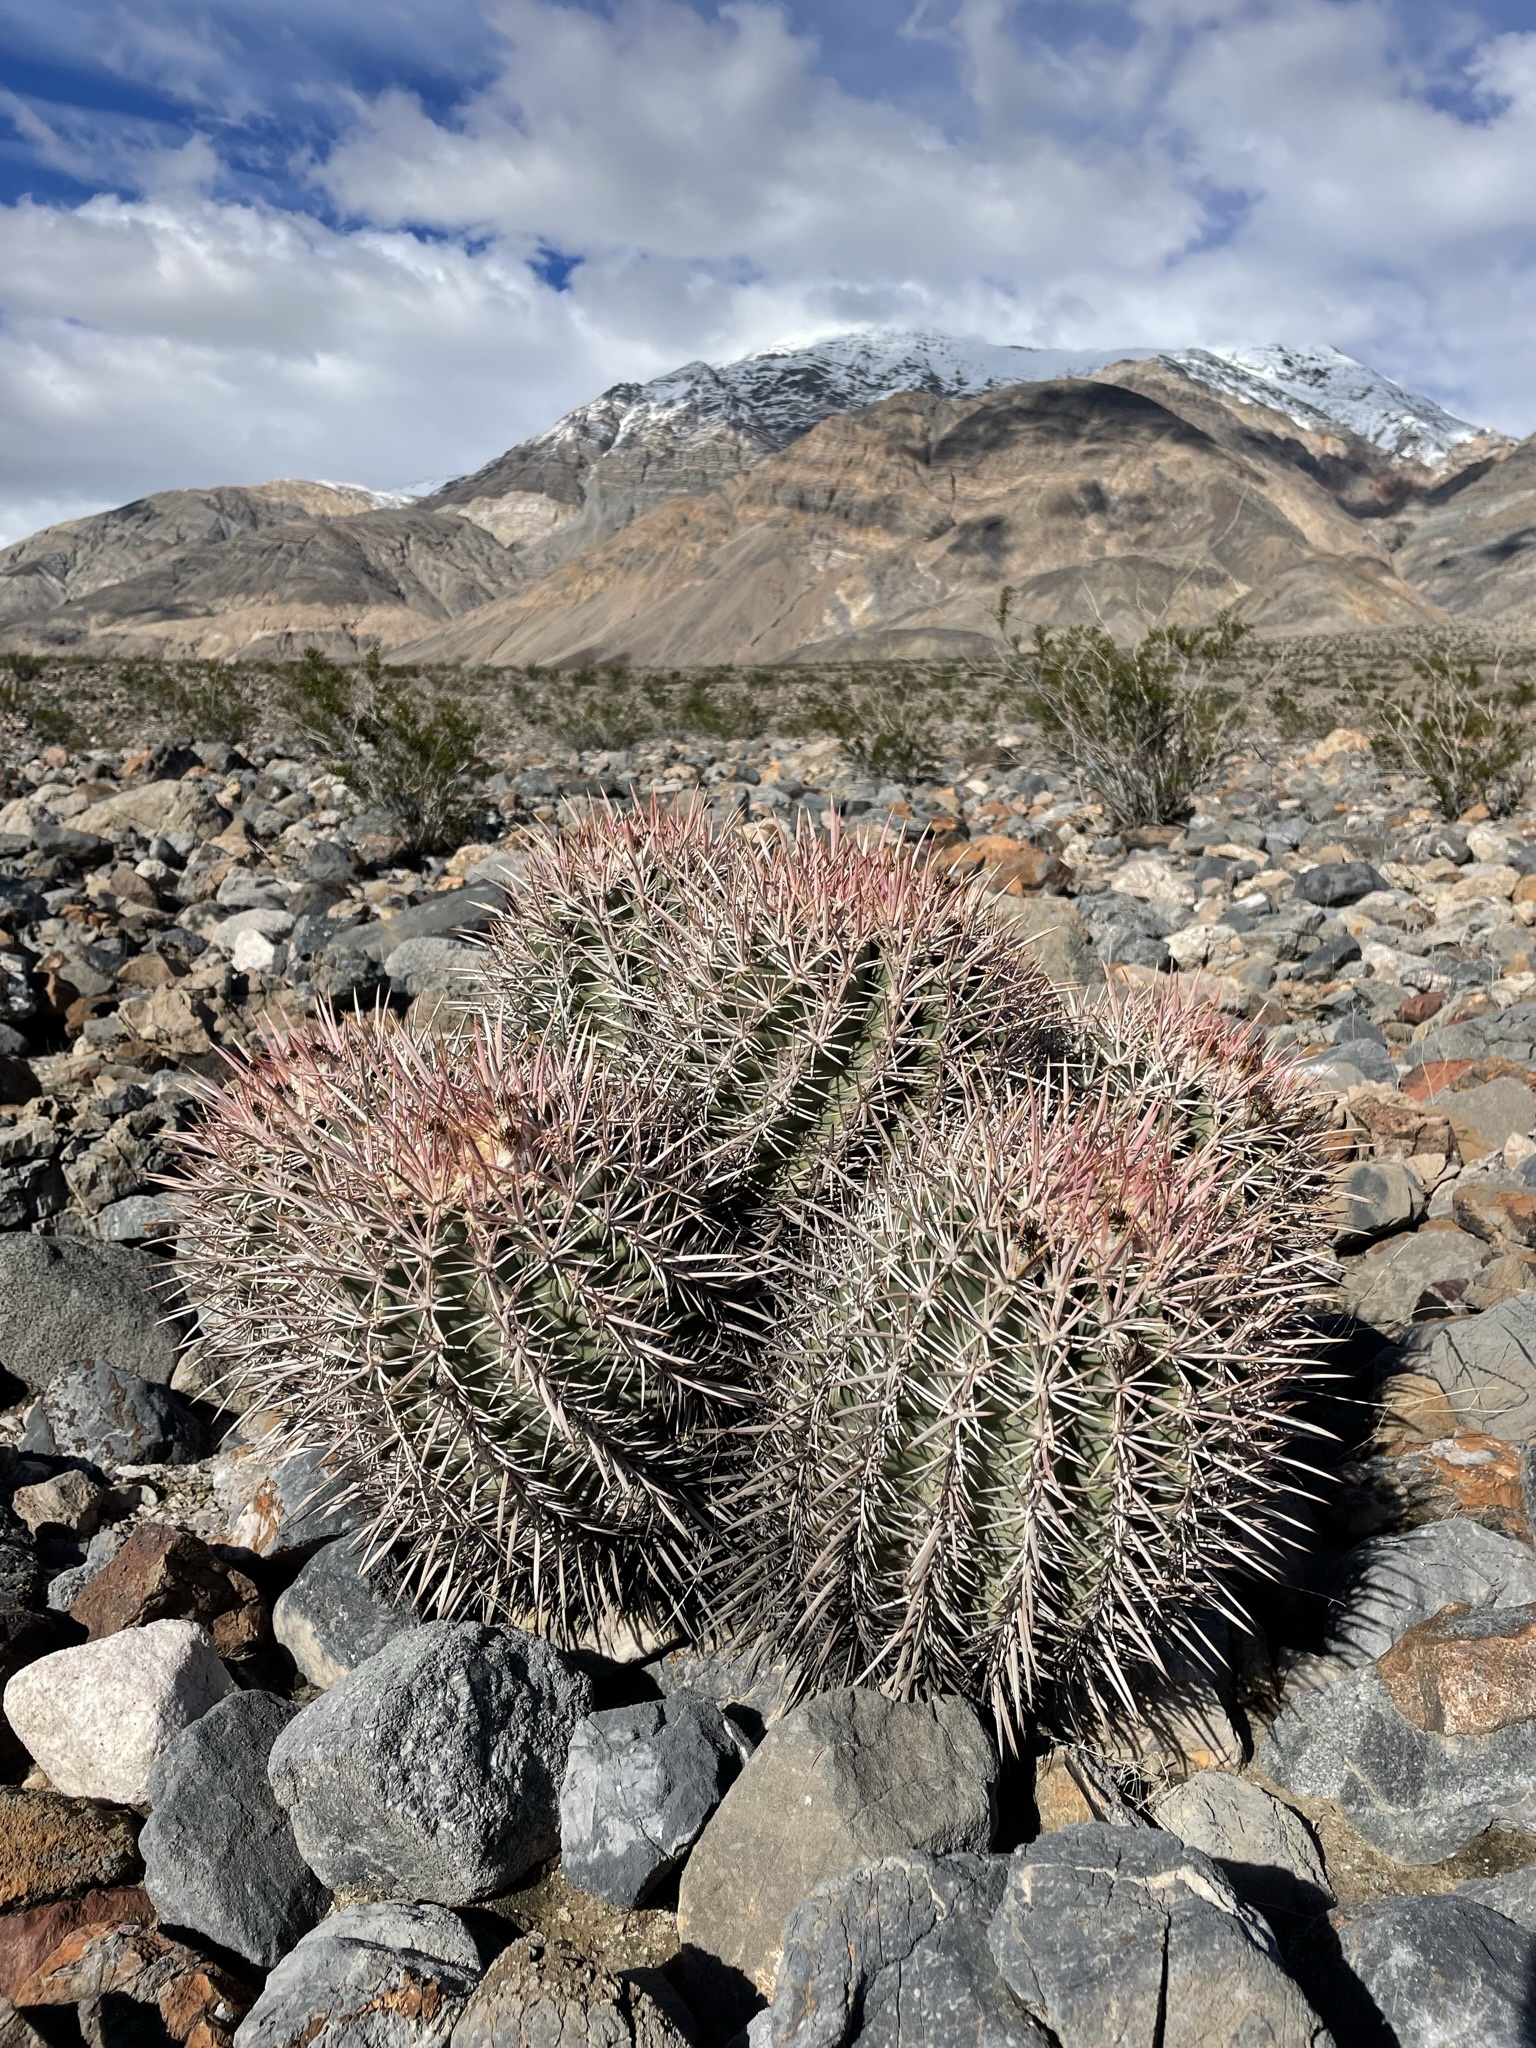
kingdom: Plantae
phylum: Tracheophyta
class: Magnoliopsida
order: Caryophyllales
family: Cactaceae
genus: Echinocactus
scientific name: Echinocactus polycephalus
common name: Cottontop cactus
